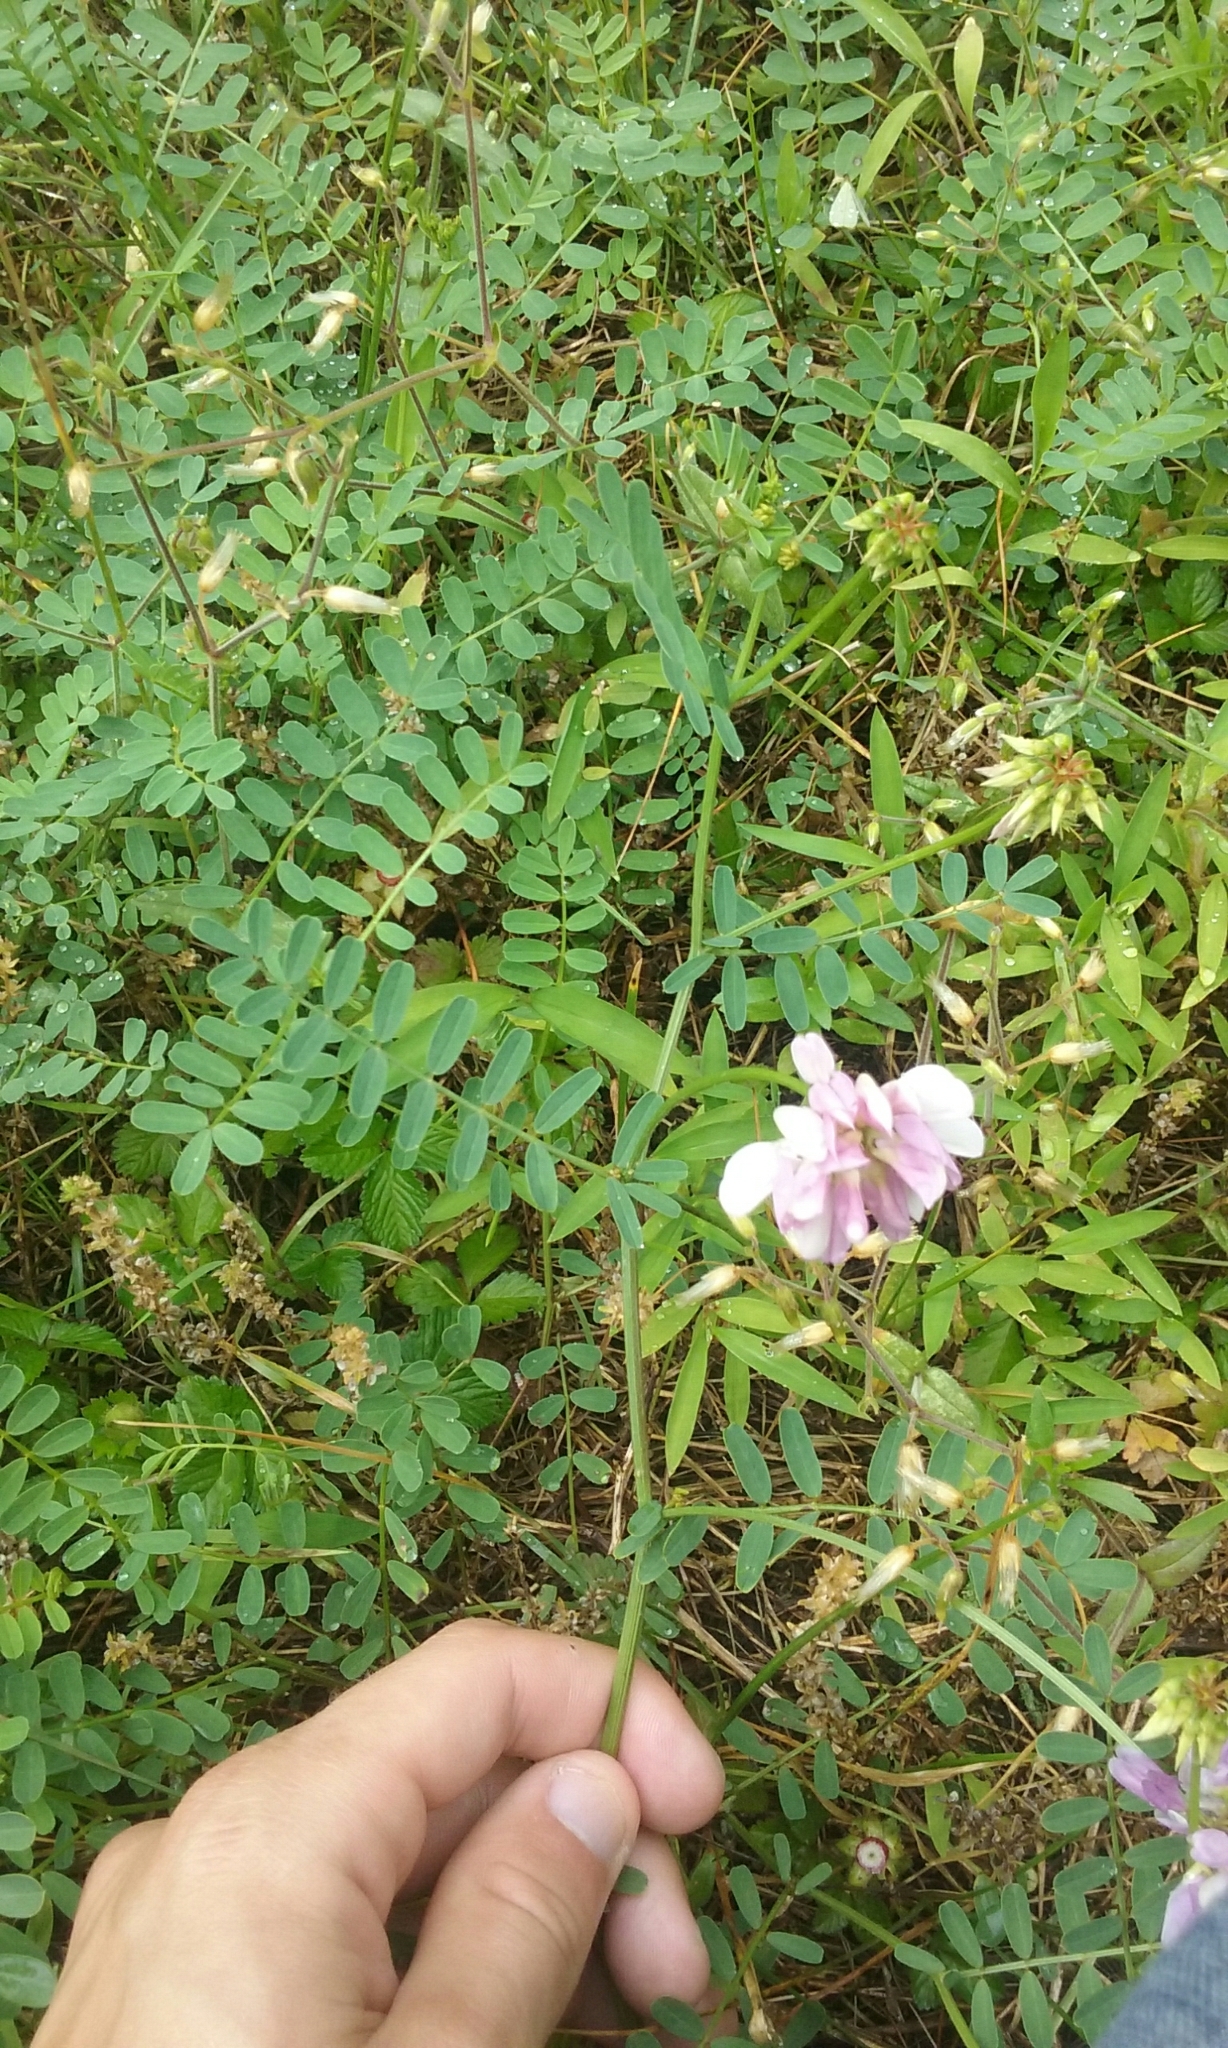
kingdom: Plantae
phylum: Tracheophyta
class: Magnoliopsida
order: Fabales
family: Fabaceae
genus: Coronilla
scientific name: Coronilla varia
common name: Crownvetch
